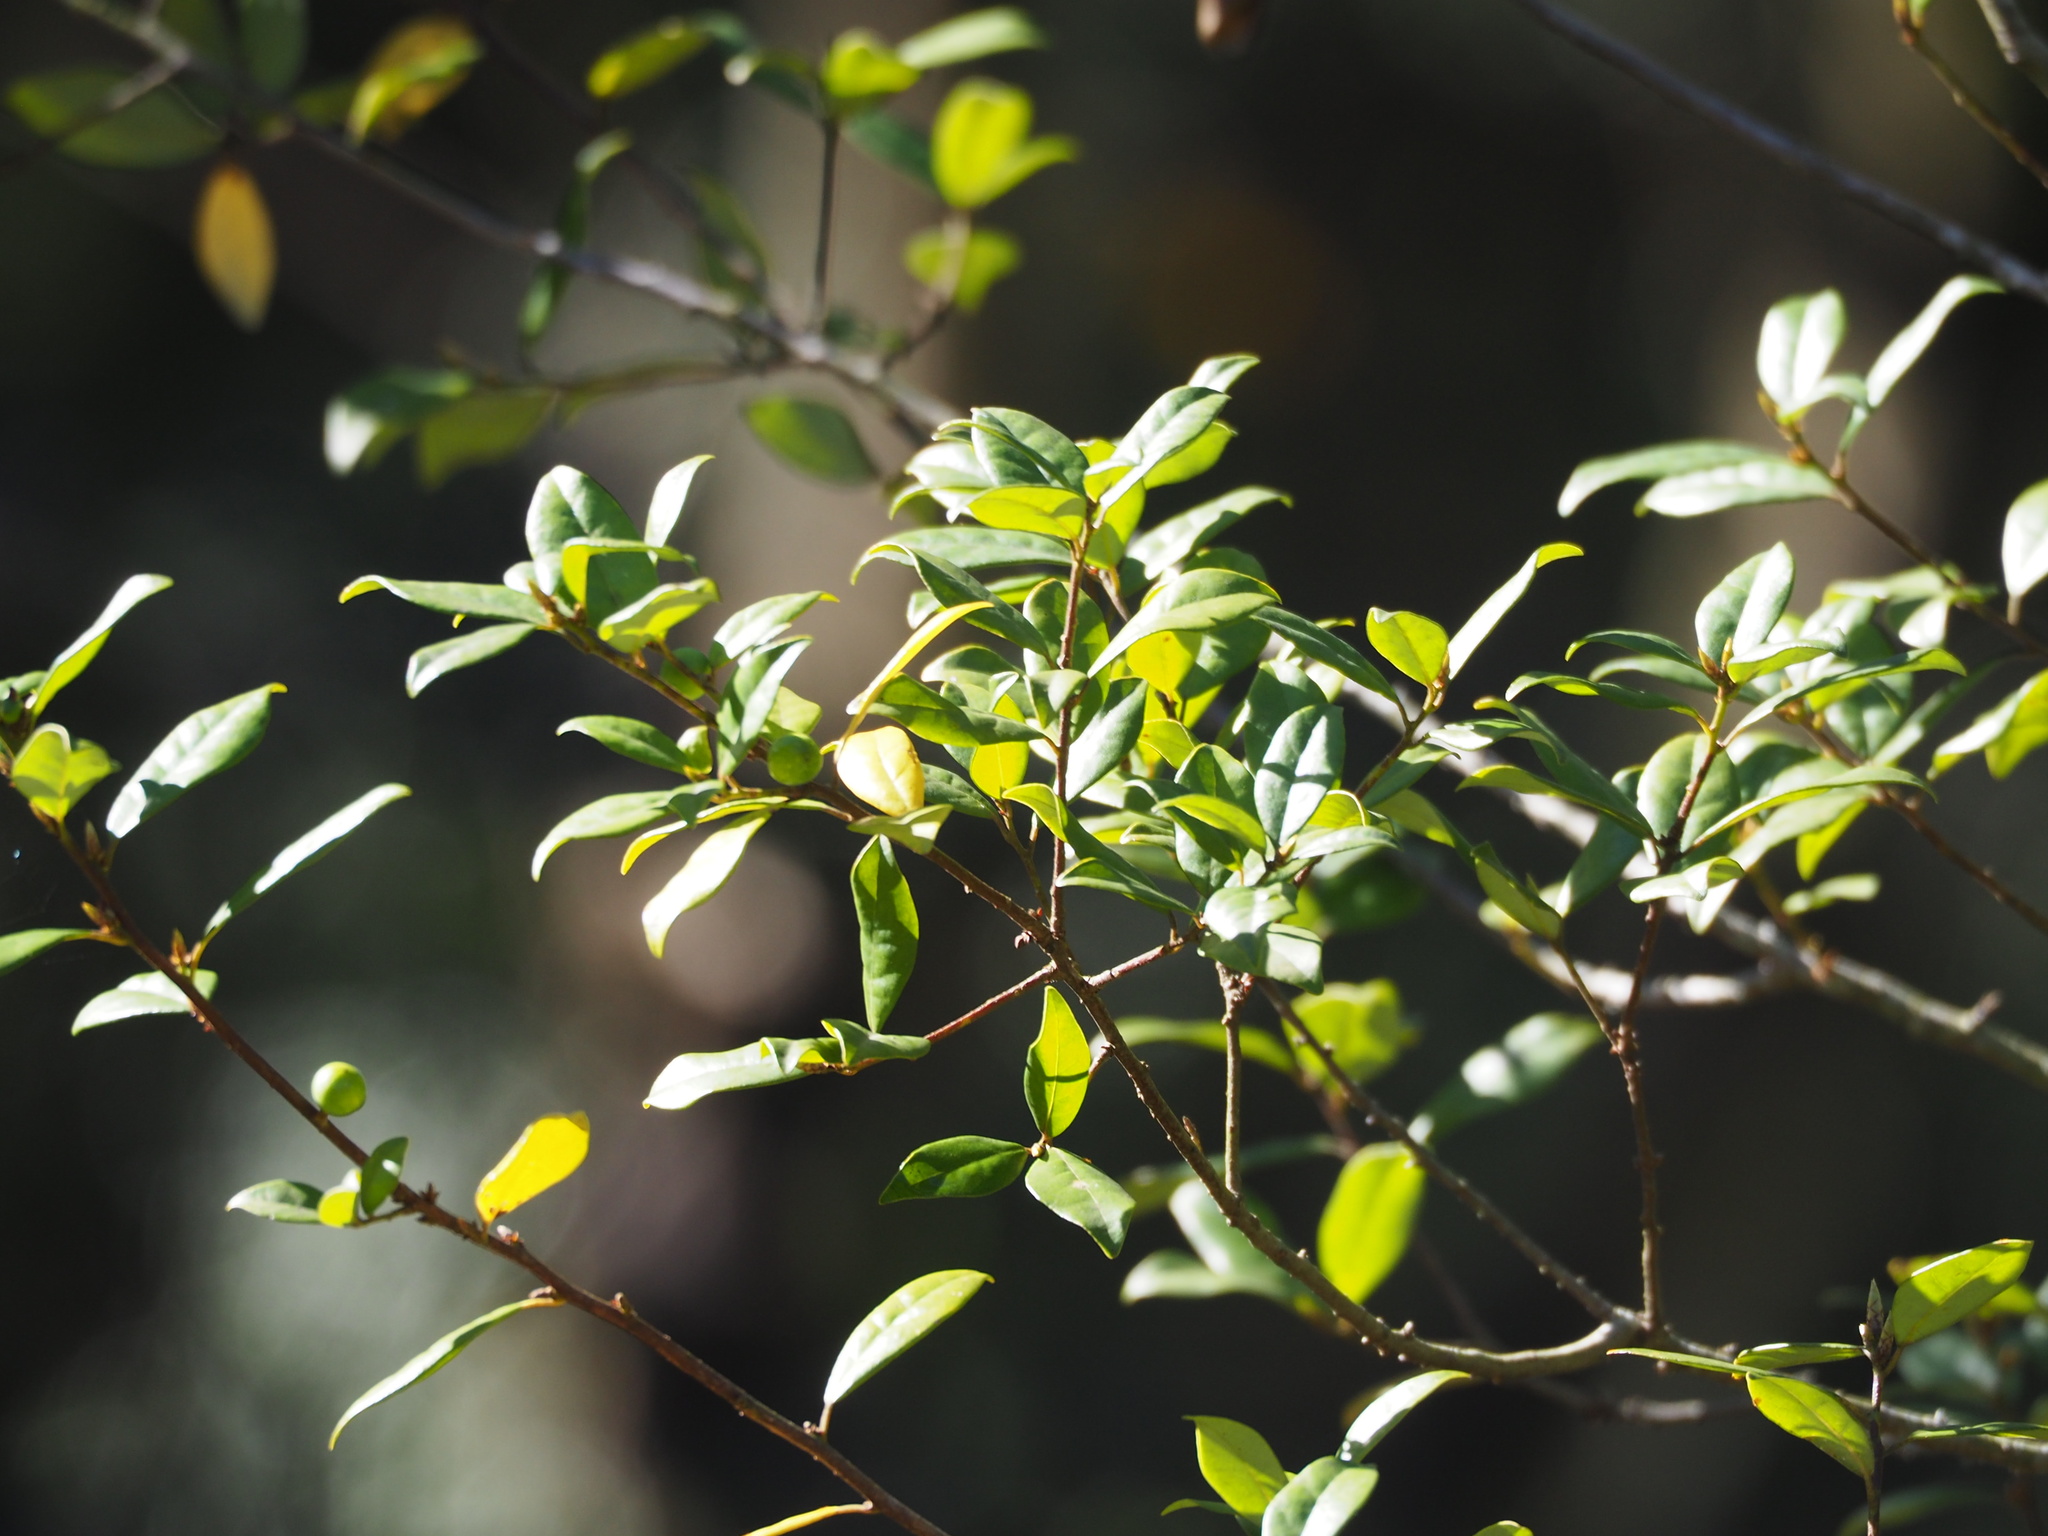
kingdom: Plantae
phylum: Tracheophyta
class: Magnoliopsida
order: Laurales
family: Lauraceae
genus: Litsea
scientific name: Litsea rotundifolia
